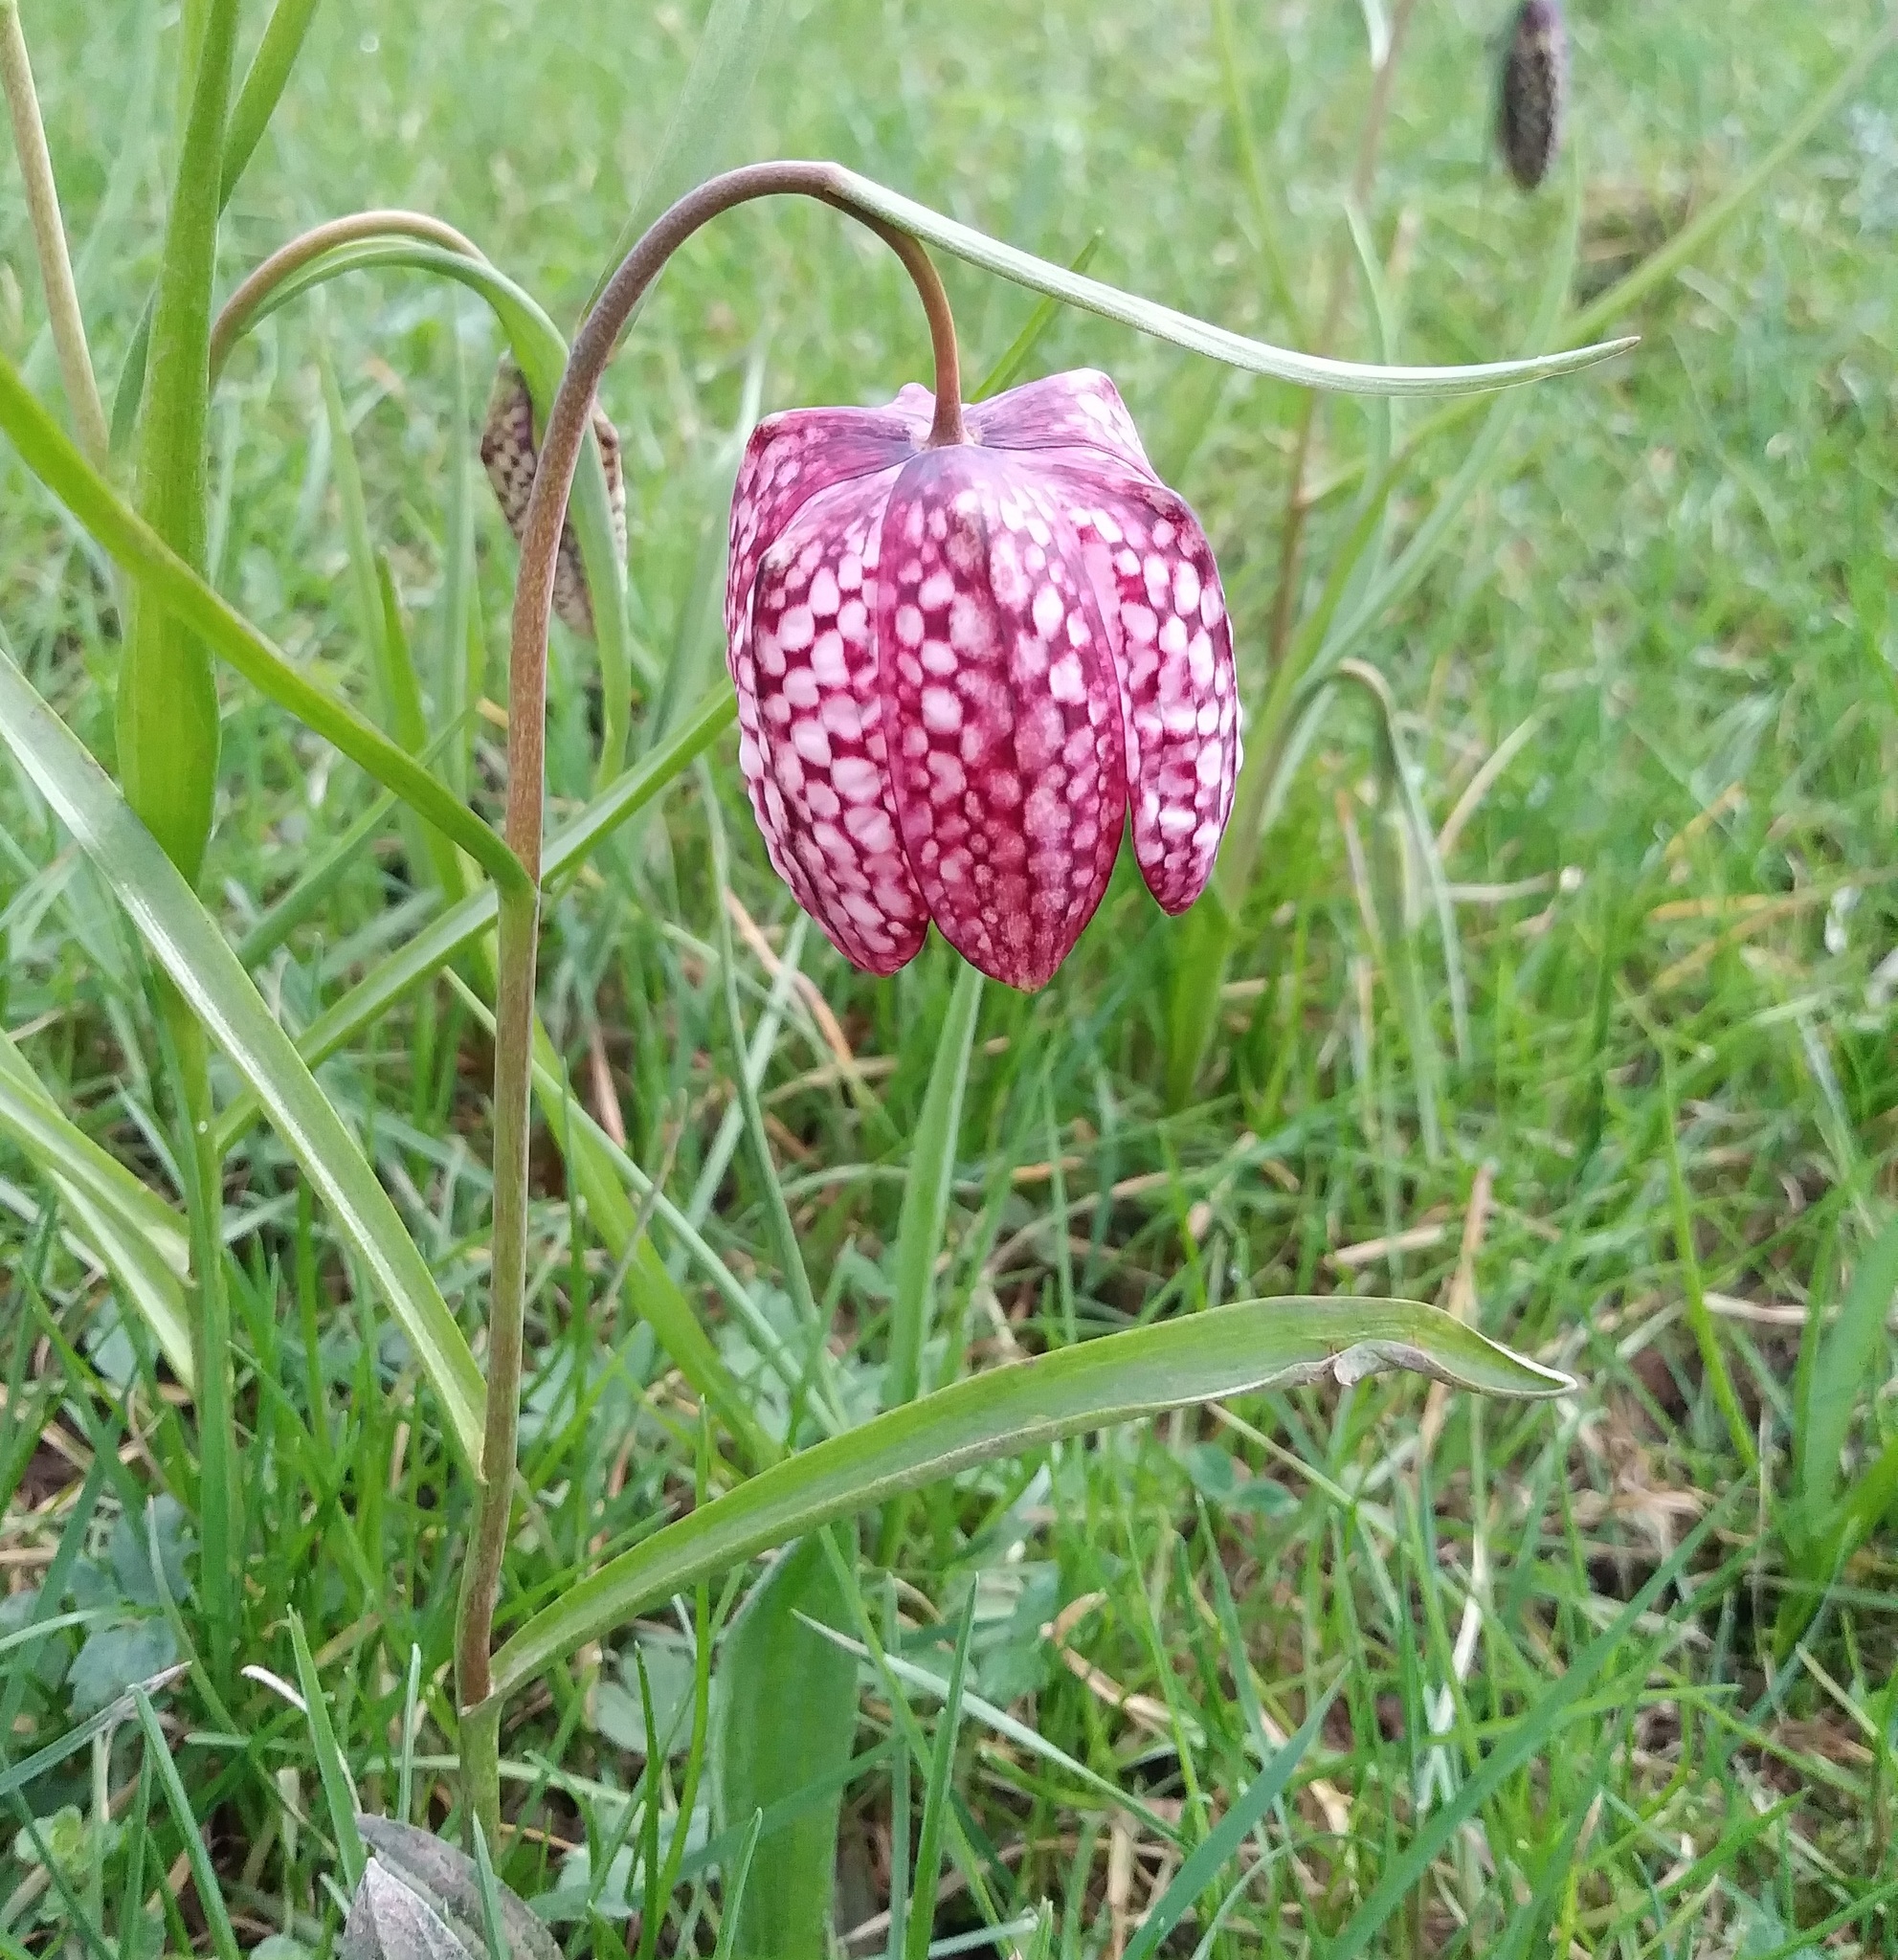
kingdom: Plantae
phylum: Tracheophyta
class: Liliopsida
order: Liliales
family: Liliaceae
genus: Fritillaria
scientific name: Fritillaria meleagris
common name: Fritillary
